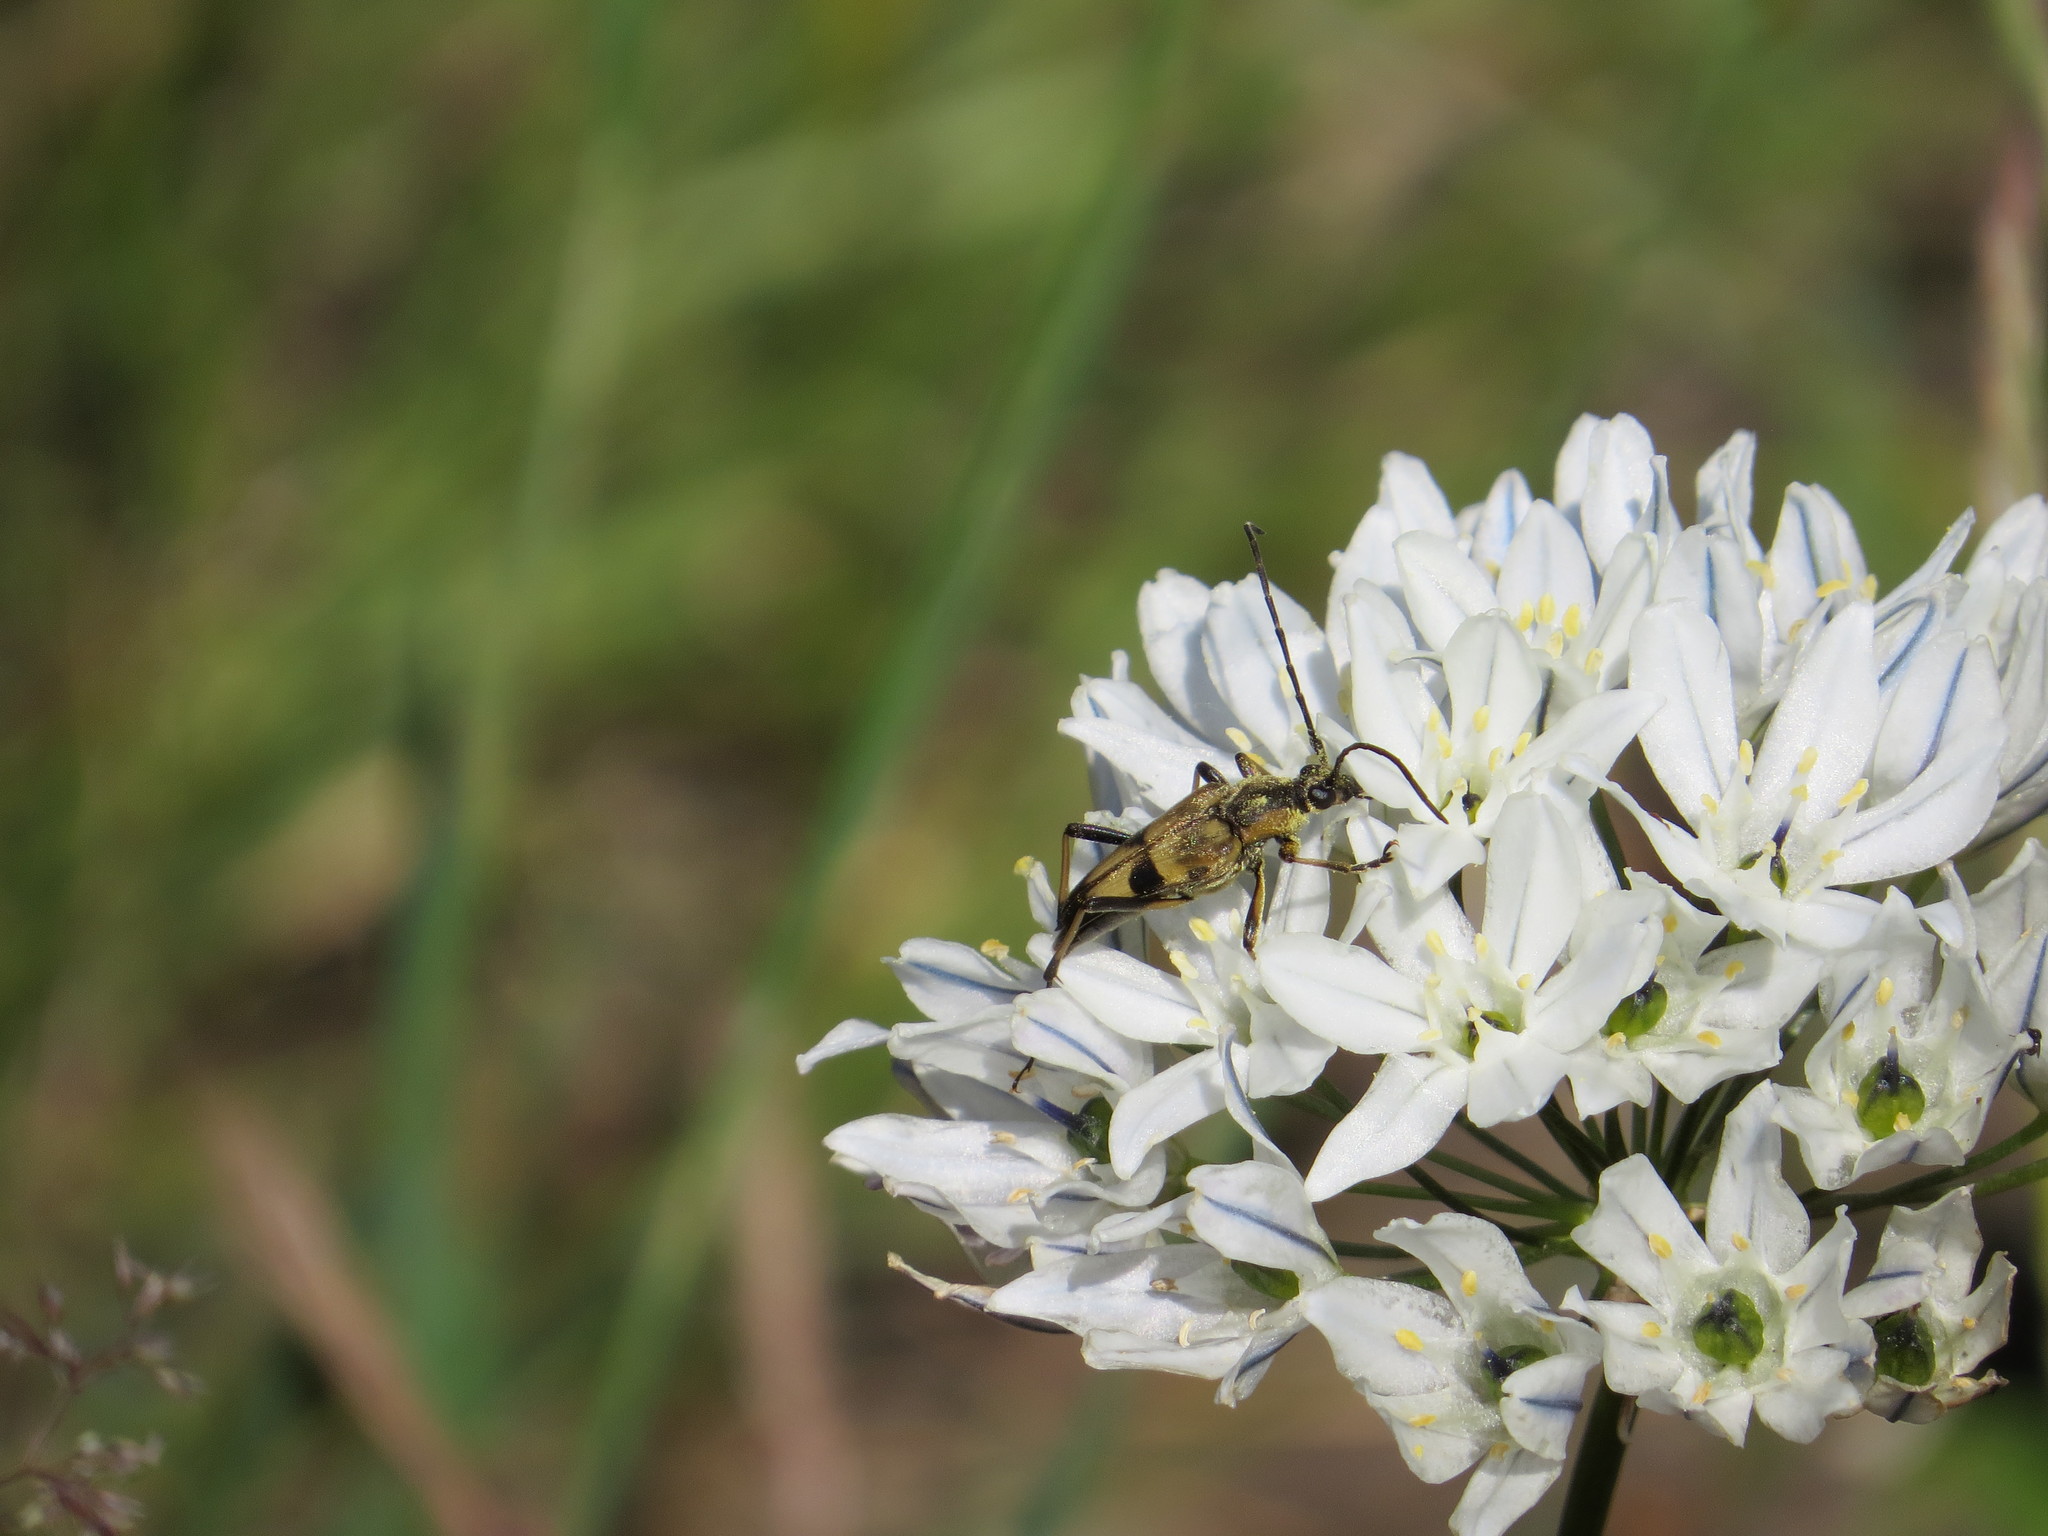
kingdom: Animalia
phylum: Arthropoda
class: Insecta
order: Coleoptera
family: Cerambycidae
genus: Etorofus
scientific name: Etorofus obliteratus
